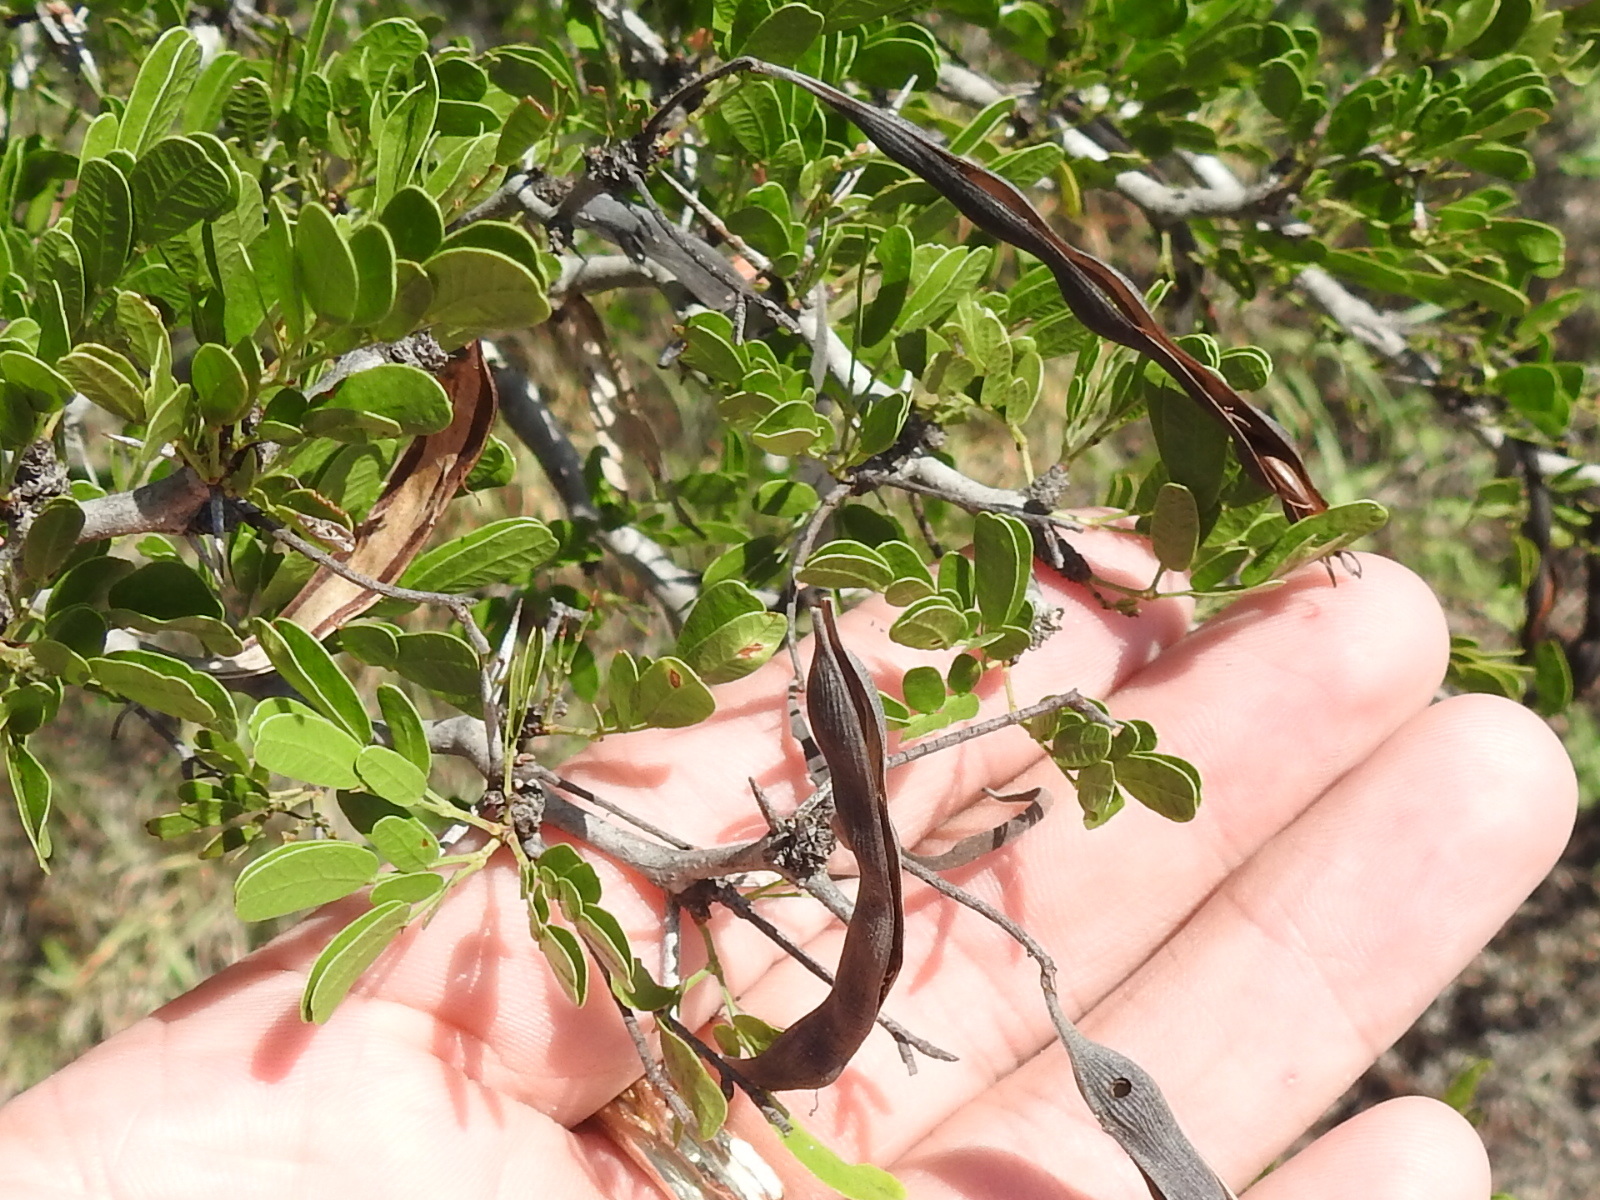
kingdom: Plantae
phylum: Tracheophyta
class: Magnoliopsida
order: Fabales
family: Fabaceae
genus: Vachellia
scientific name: Vachellia rigidula
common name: Blackbrush
